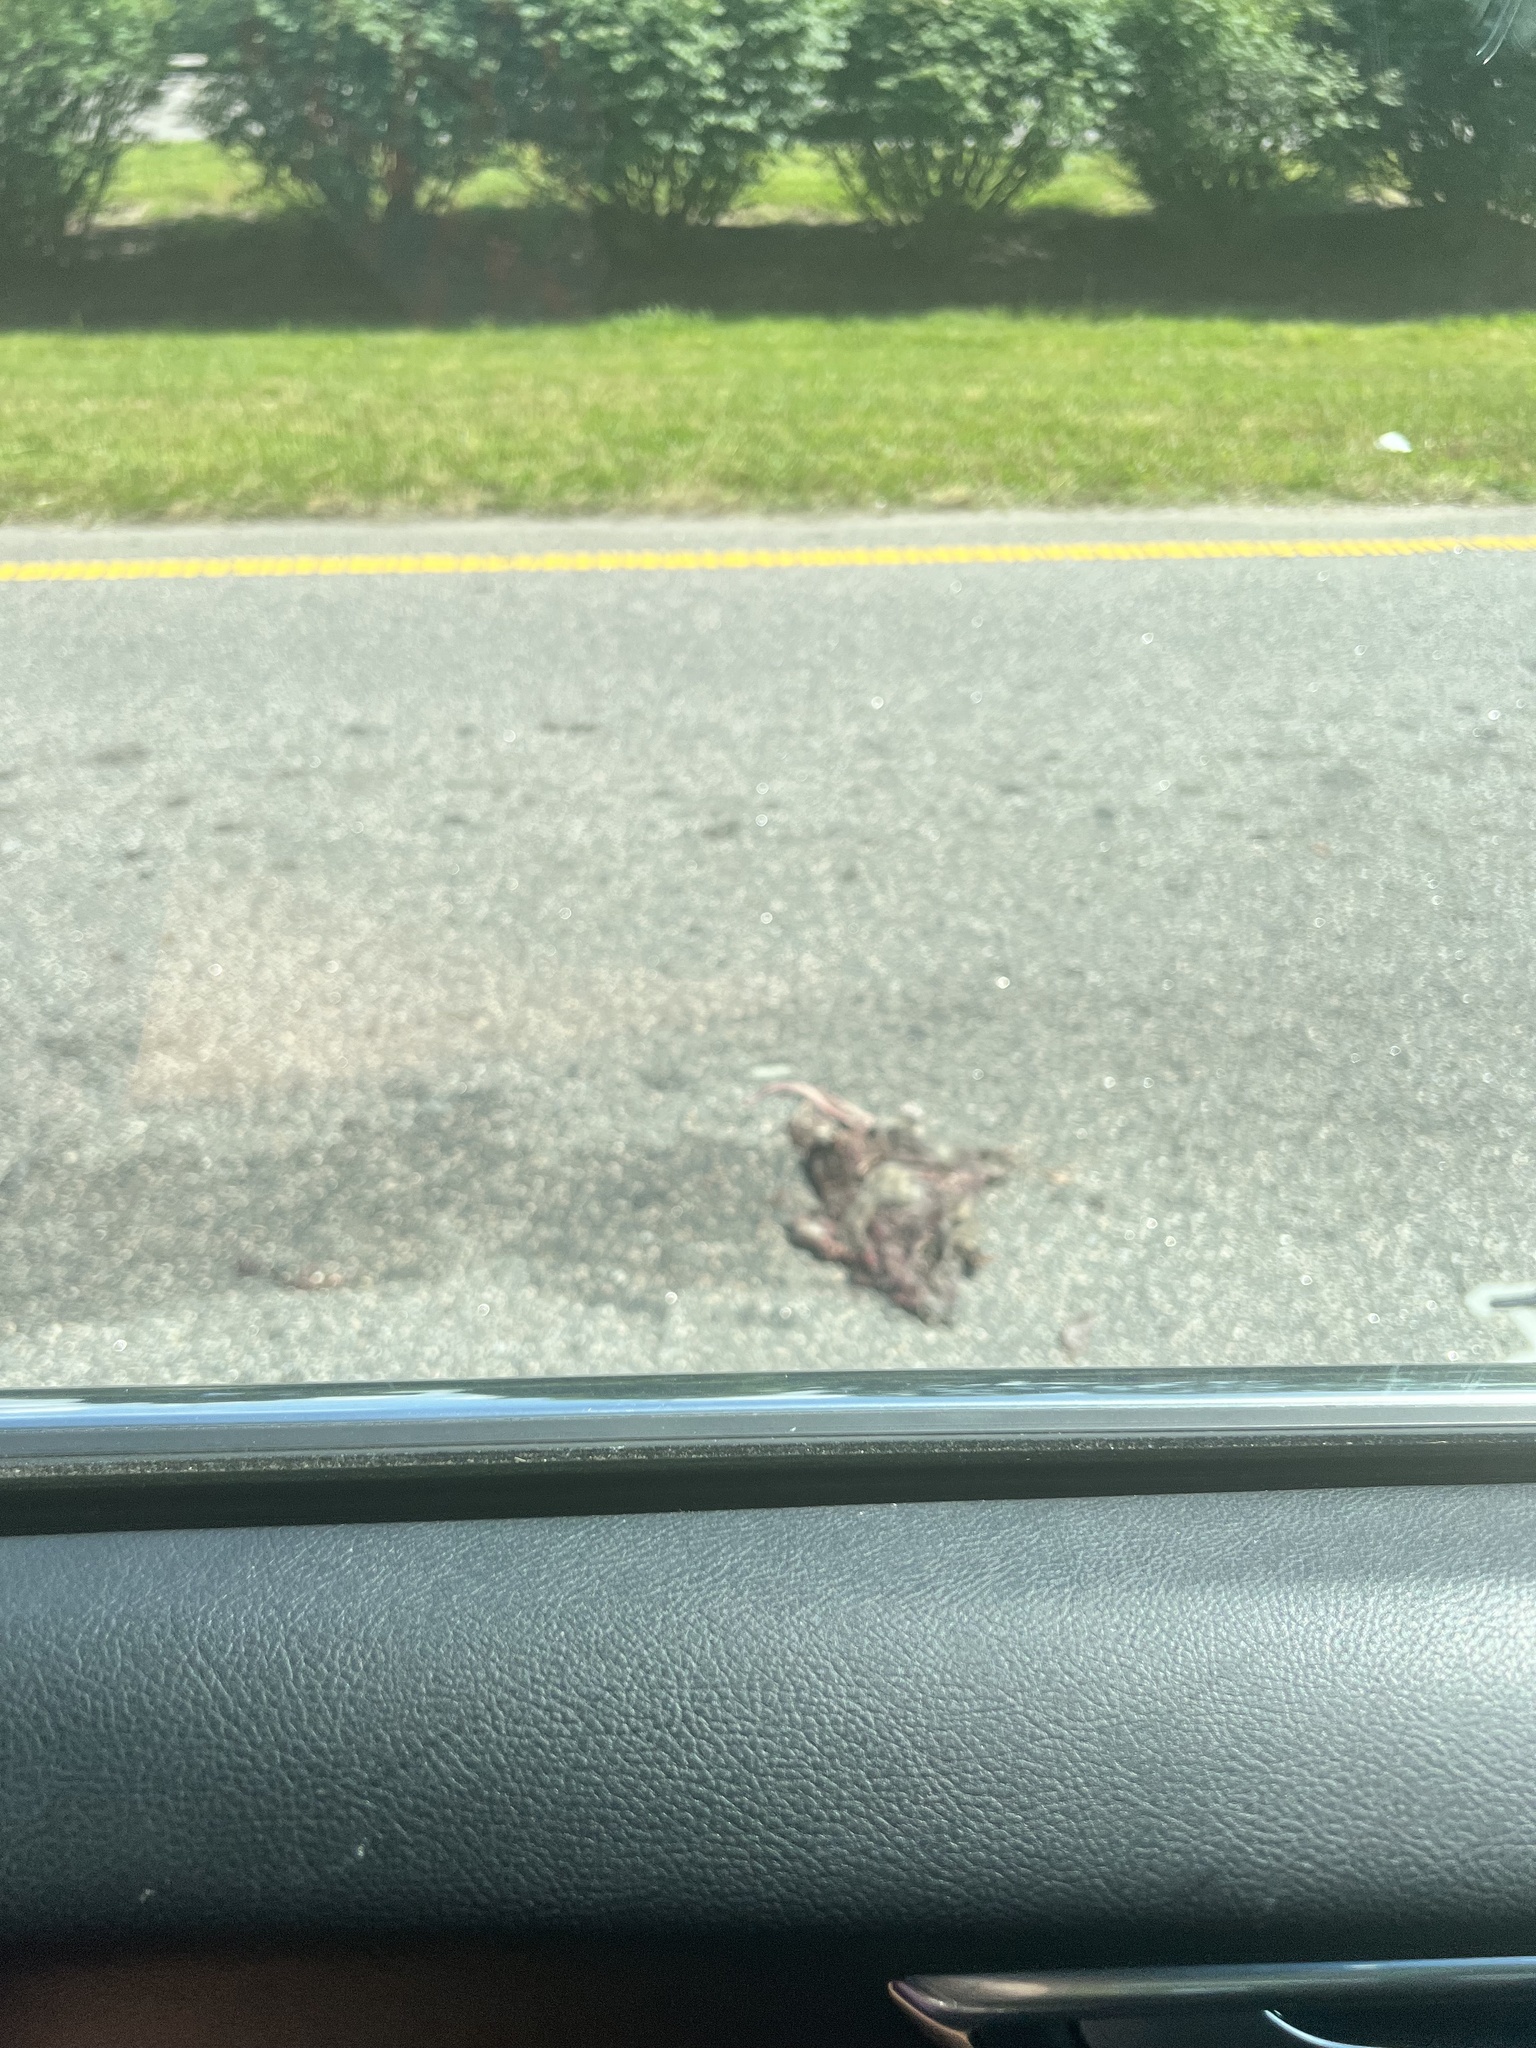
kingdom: Animalia
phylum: Chordata
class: Mammalia
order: Didelphimorphia
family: Didelphidae
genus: Didelphis
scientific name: Didelphis virginiana
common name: Virginia opossum
